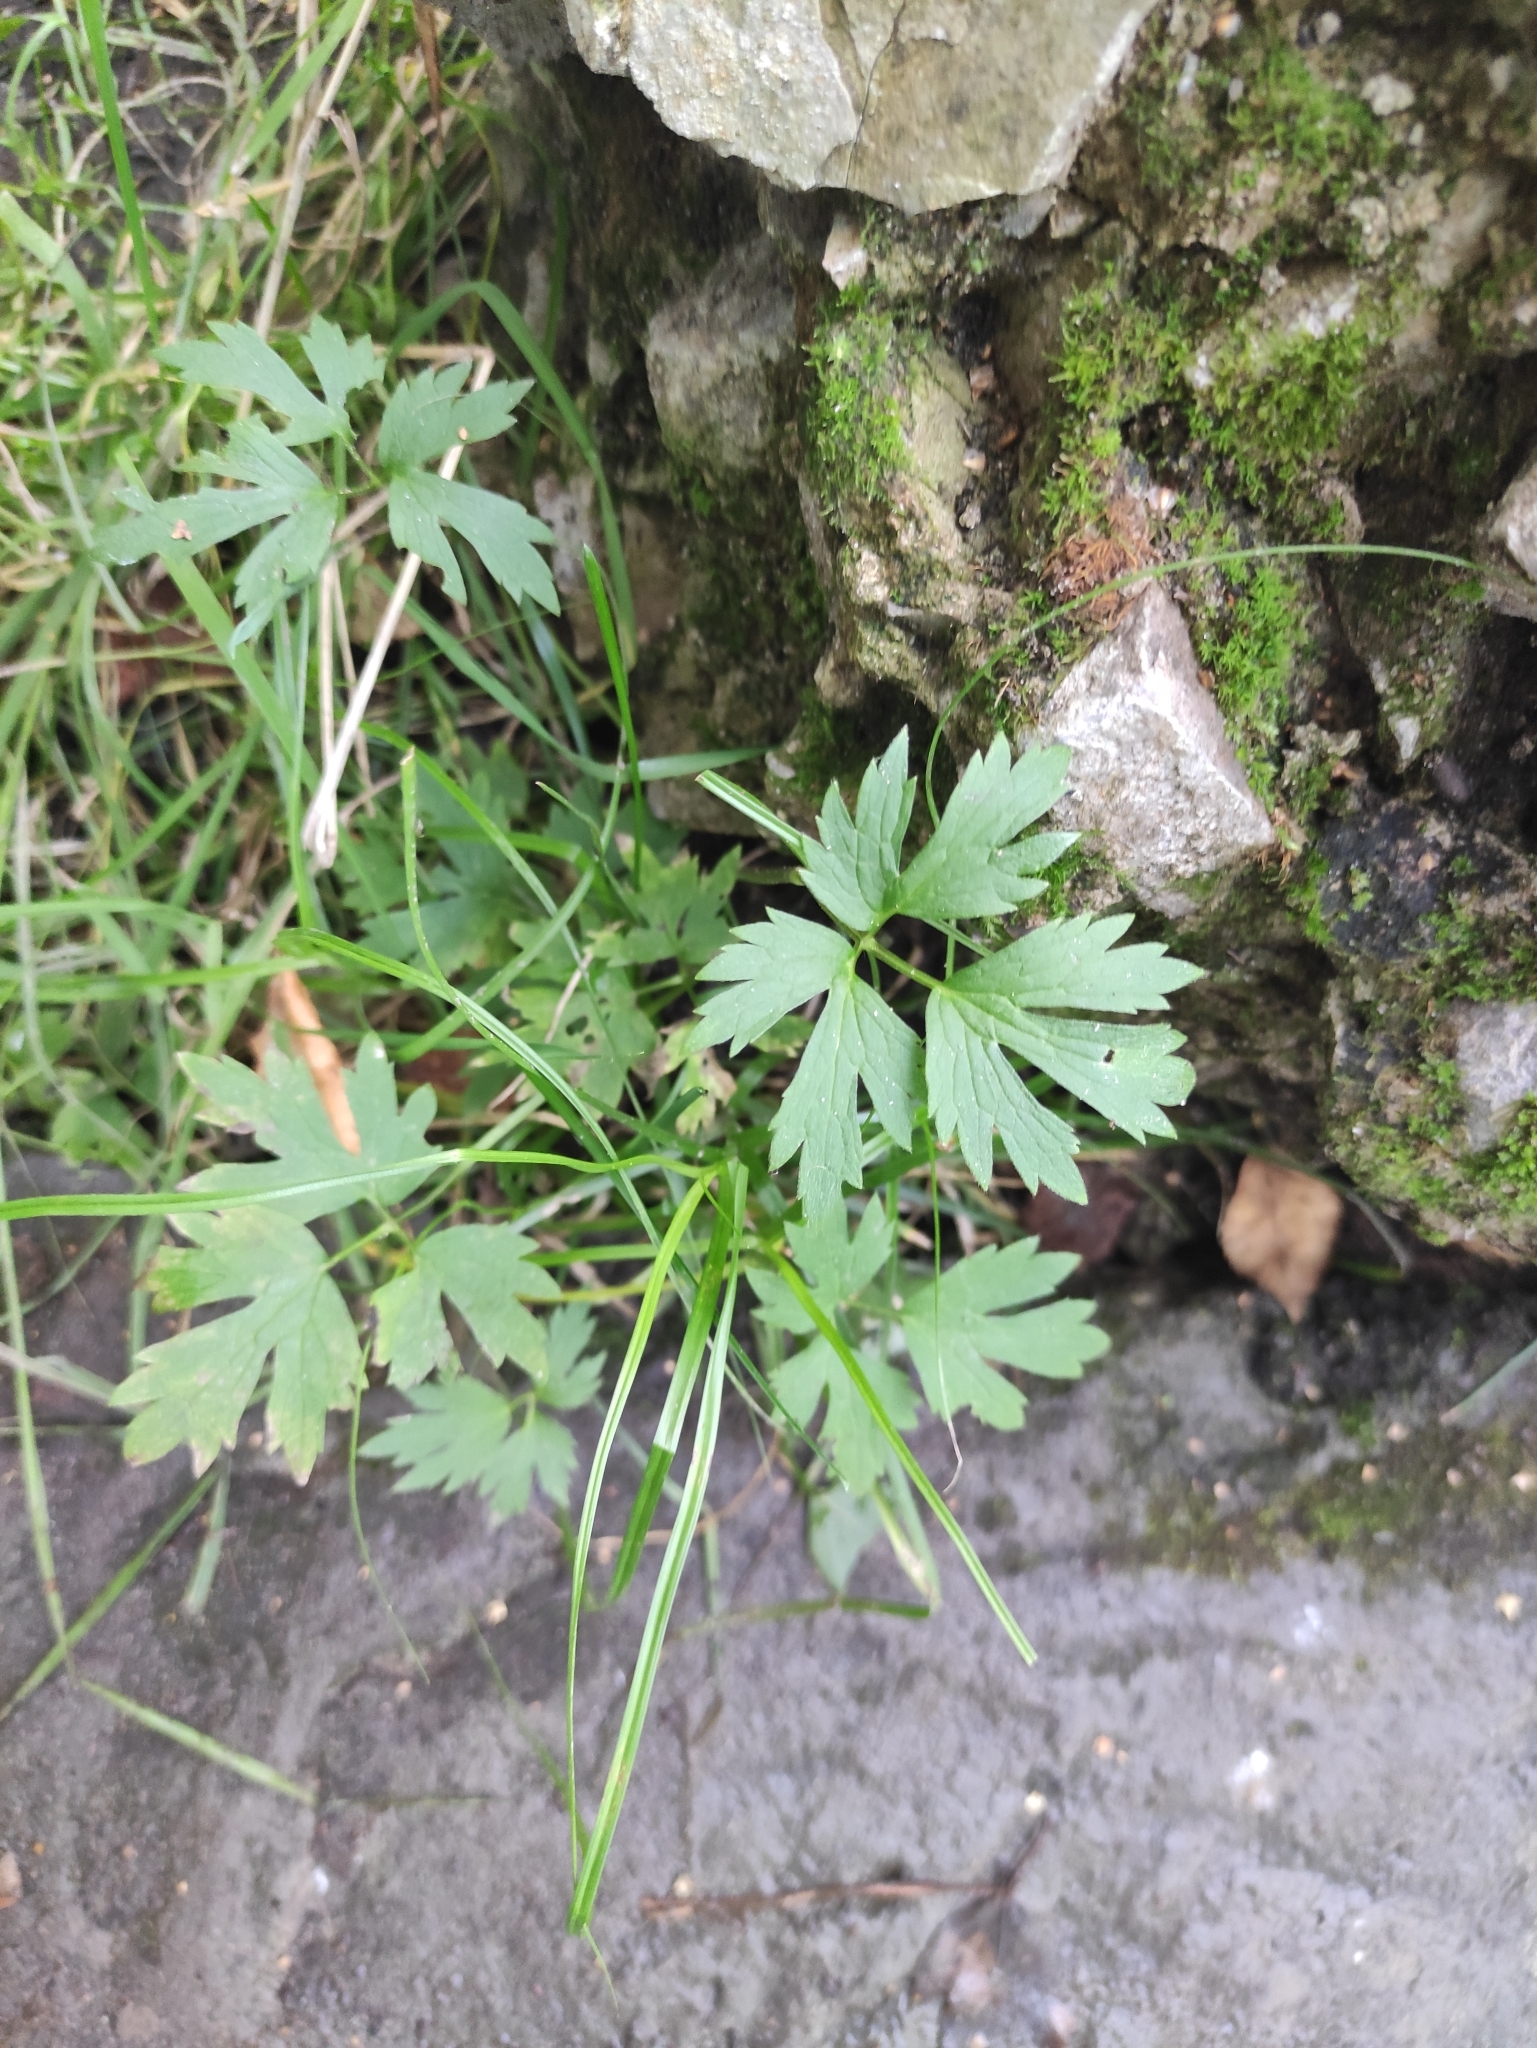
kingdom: Plantae
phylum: Tracheophyta
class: Magnoliopsida
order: Ranunculales
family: Ranunculaceae
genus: Ranunculus
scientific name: Ranunculus repens
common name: Creeping buttercup
